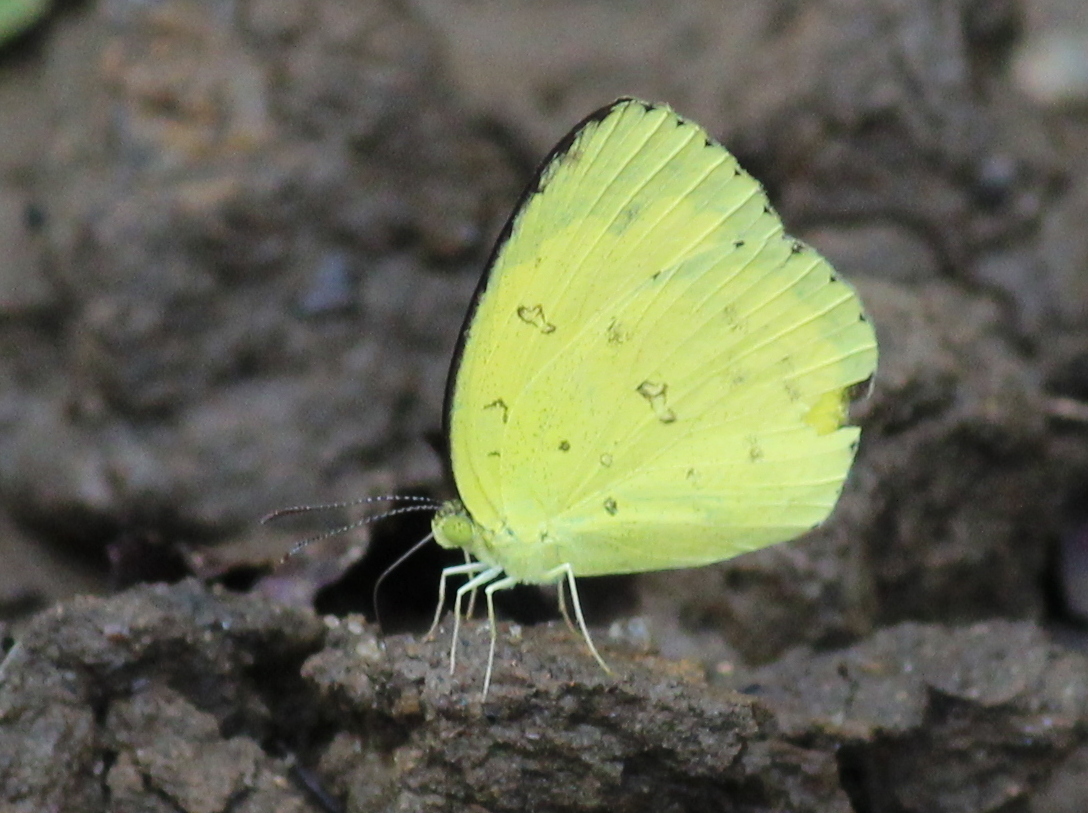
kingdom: Animalia
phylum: Arthropoda
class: Insecta
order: Lepidoptera
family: Pieridae
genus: Eurema
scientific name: Eurema hecabe
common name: Pale grass yellow
